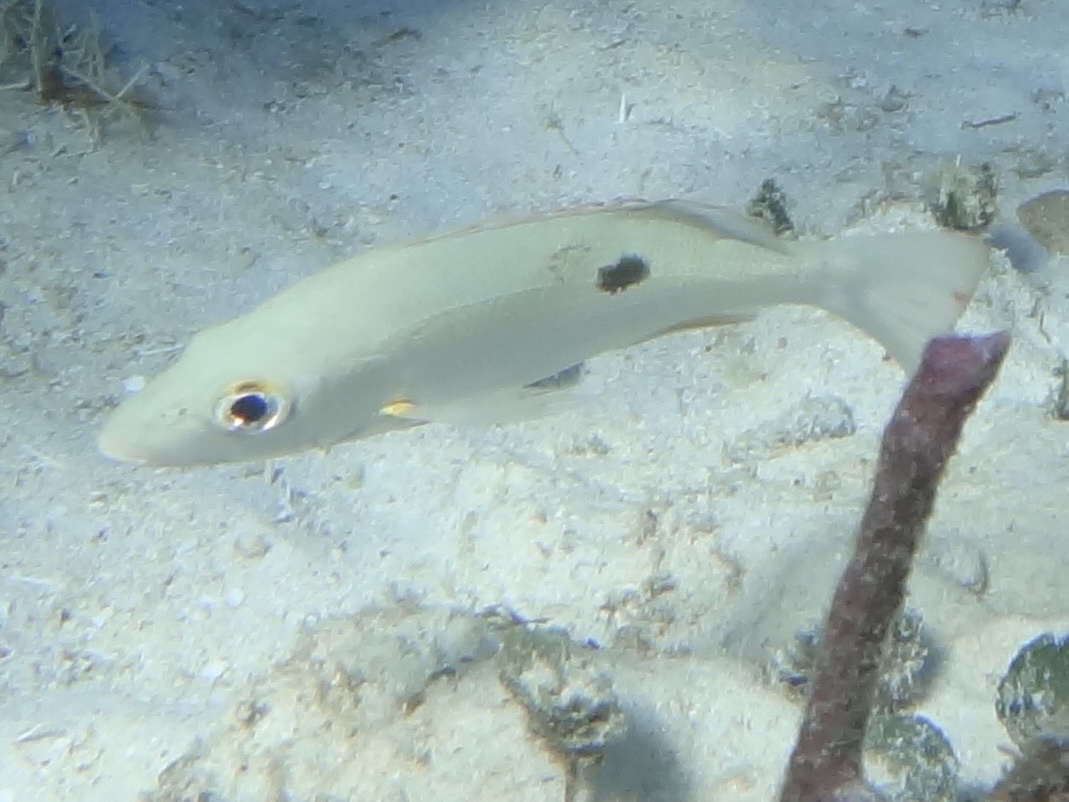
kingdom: Animalia
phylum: Chordata
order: Perciformes
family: Lutjanidae
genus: Lutjanus
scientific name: Lutjanus mahogoni
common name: Spot snapper
